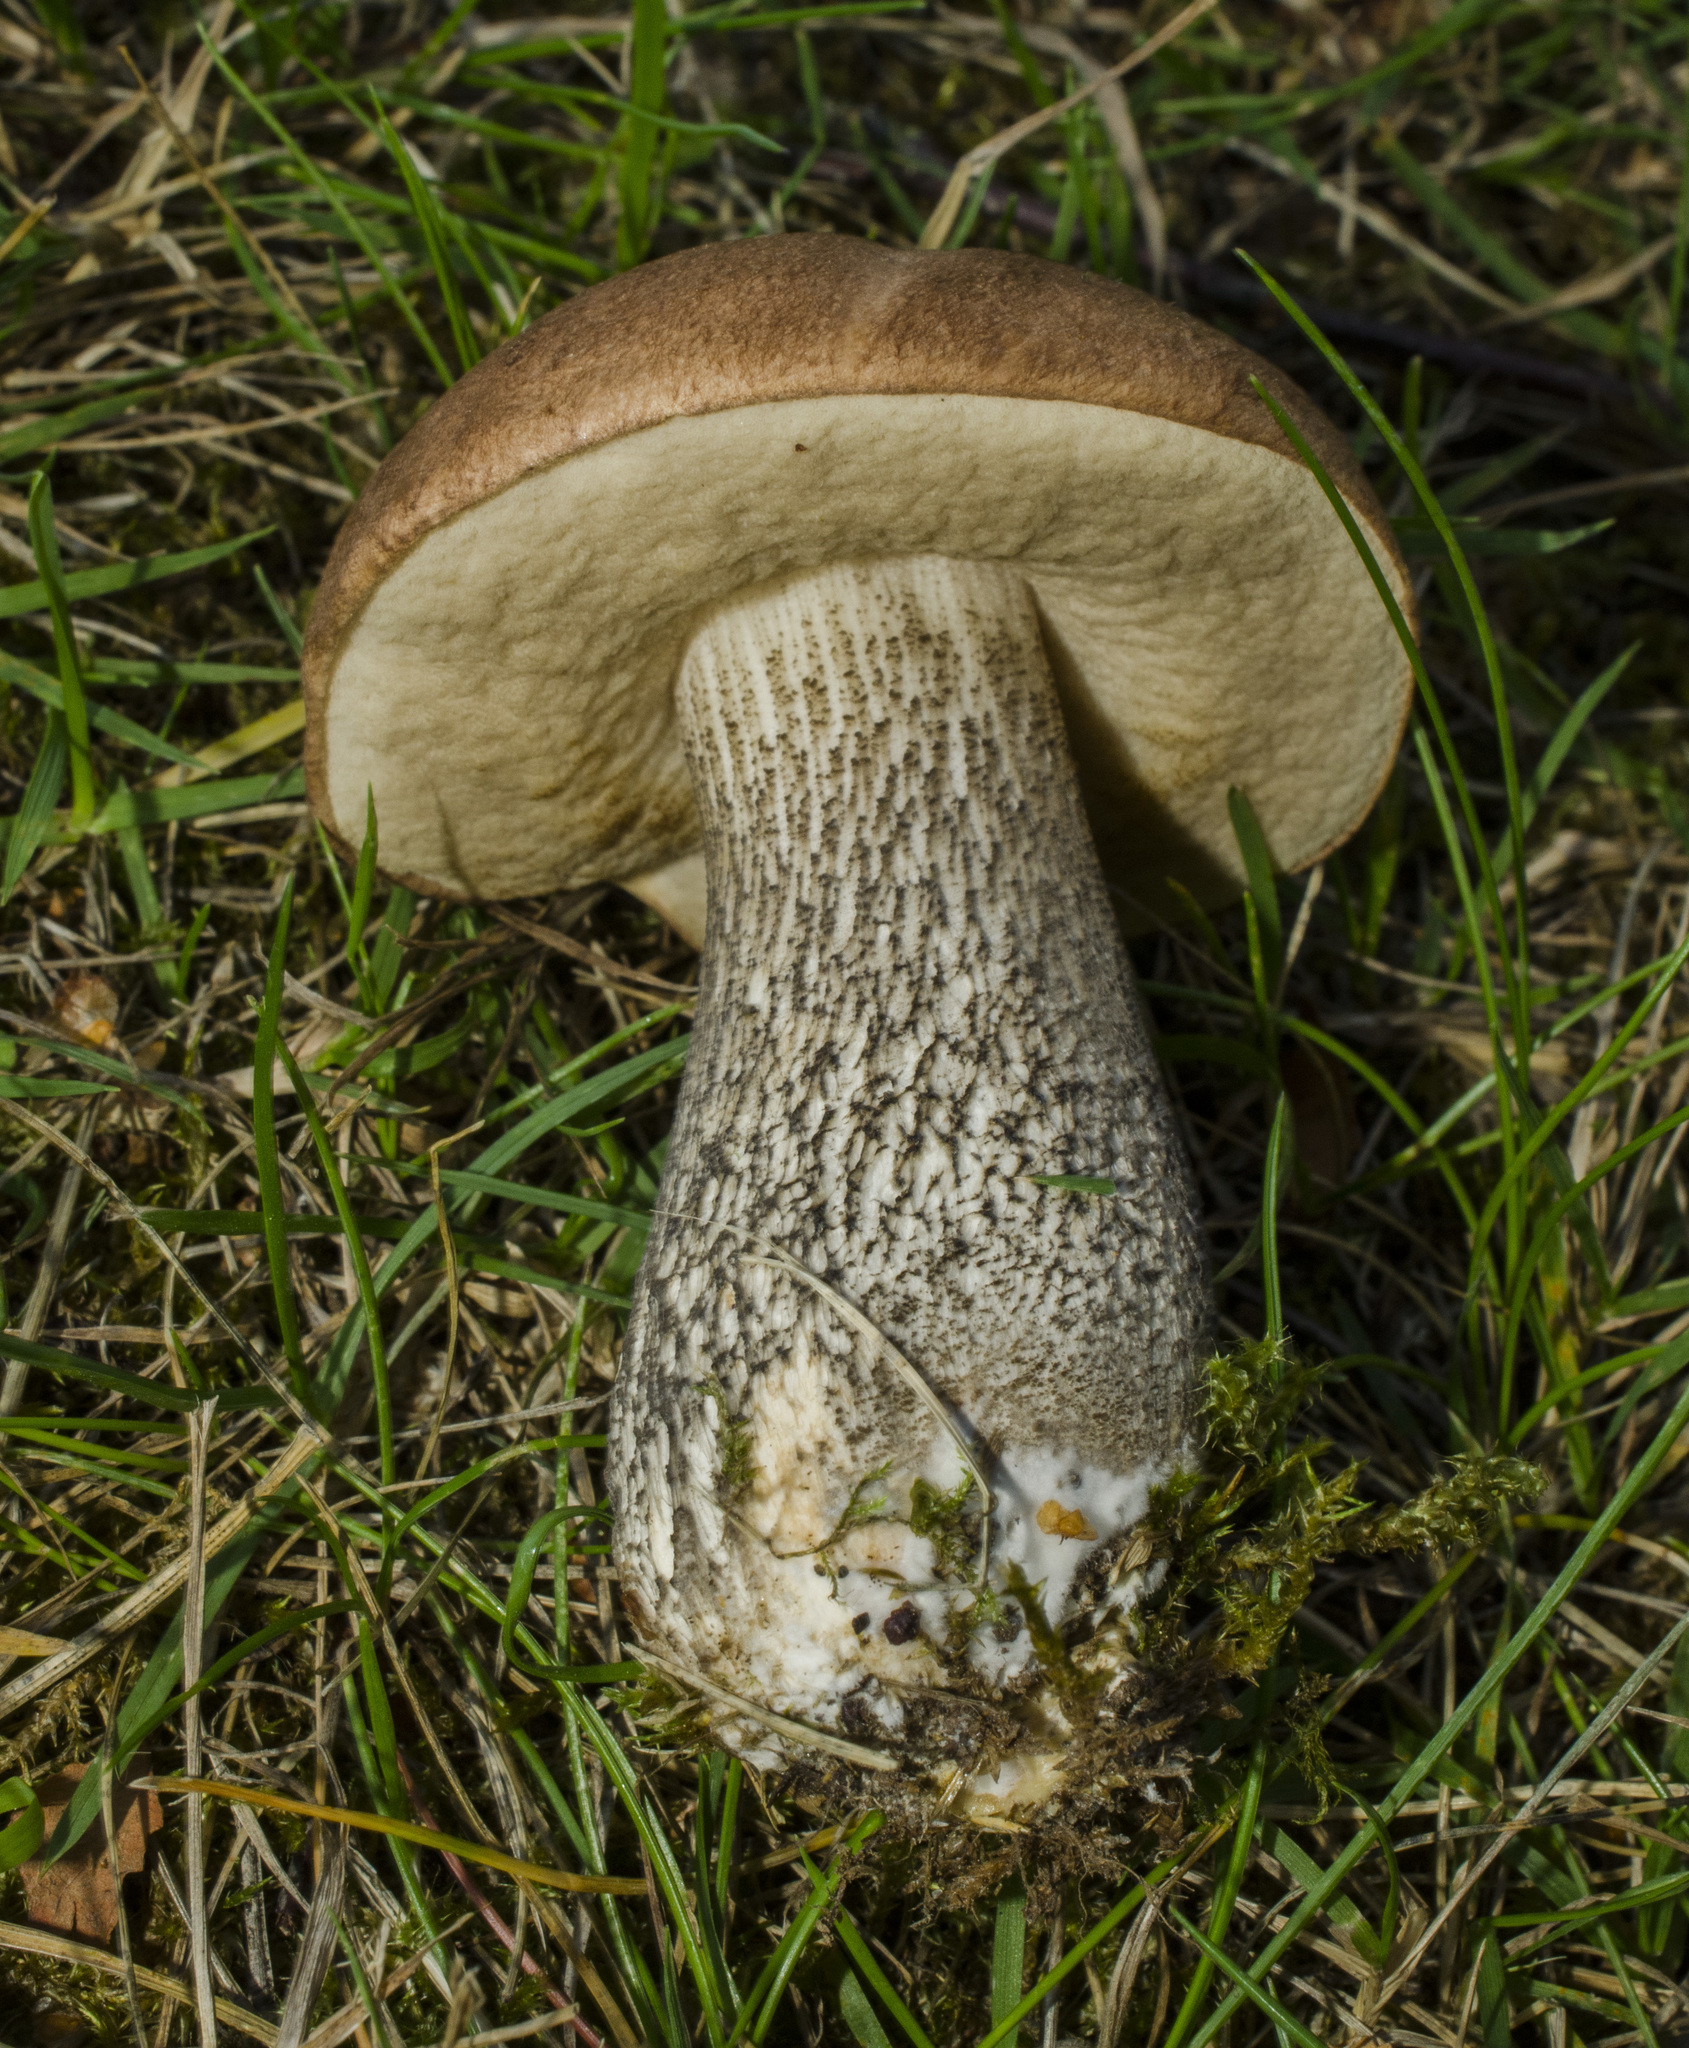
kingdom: Fungi
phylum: Basidiomycota
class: Agaricomycetes
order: Boletales
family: Boletaceae
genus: Leccinum
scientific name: Leccinum scabrum
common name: Blushing bolete
